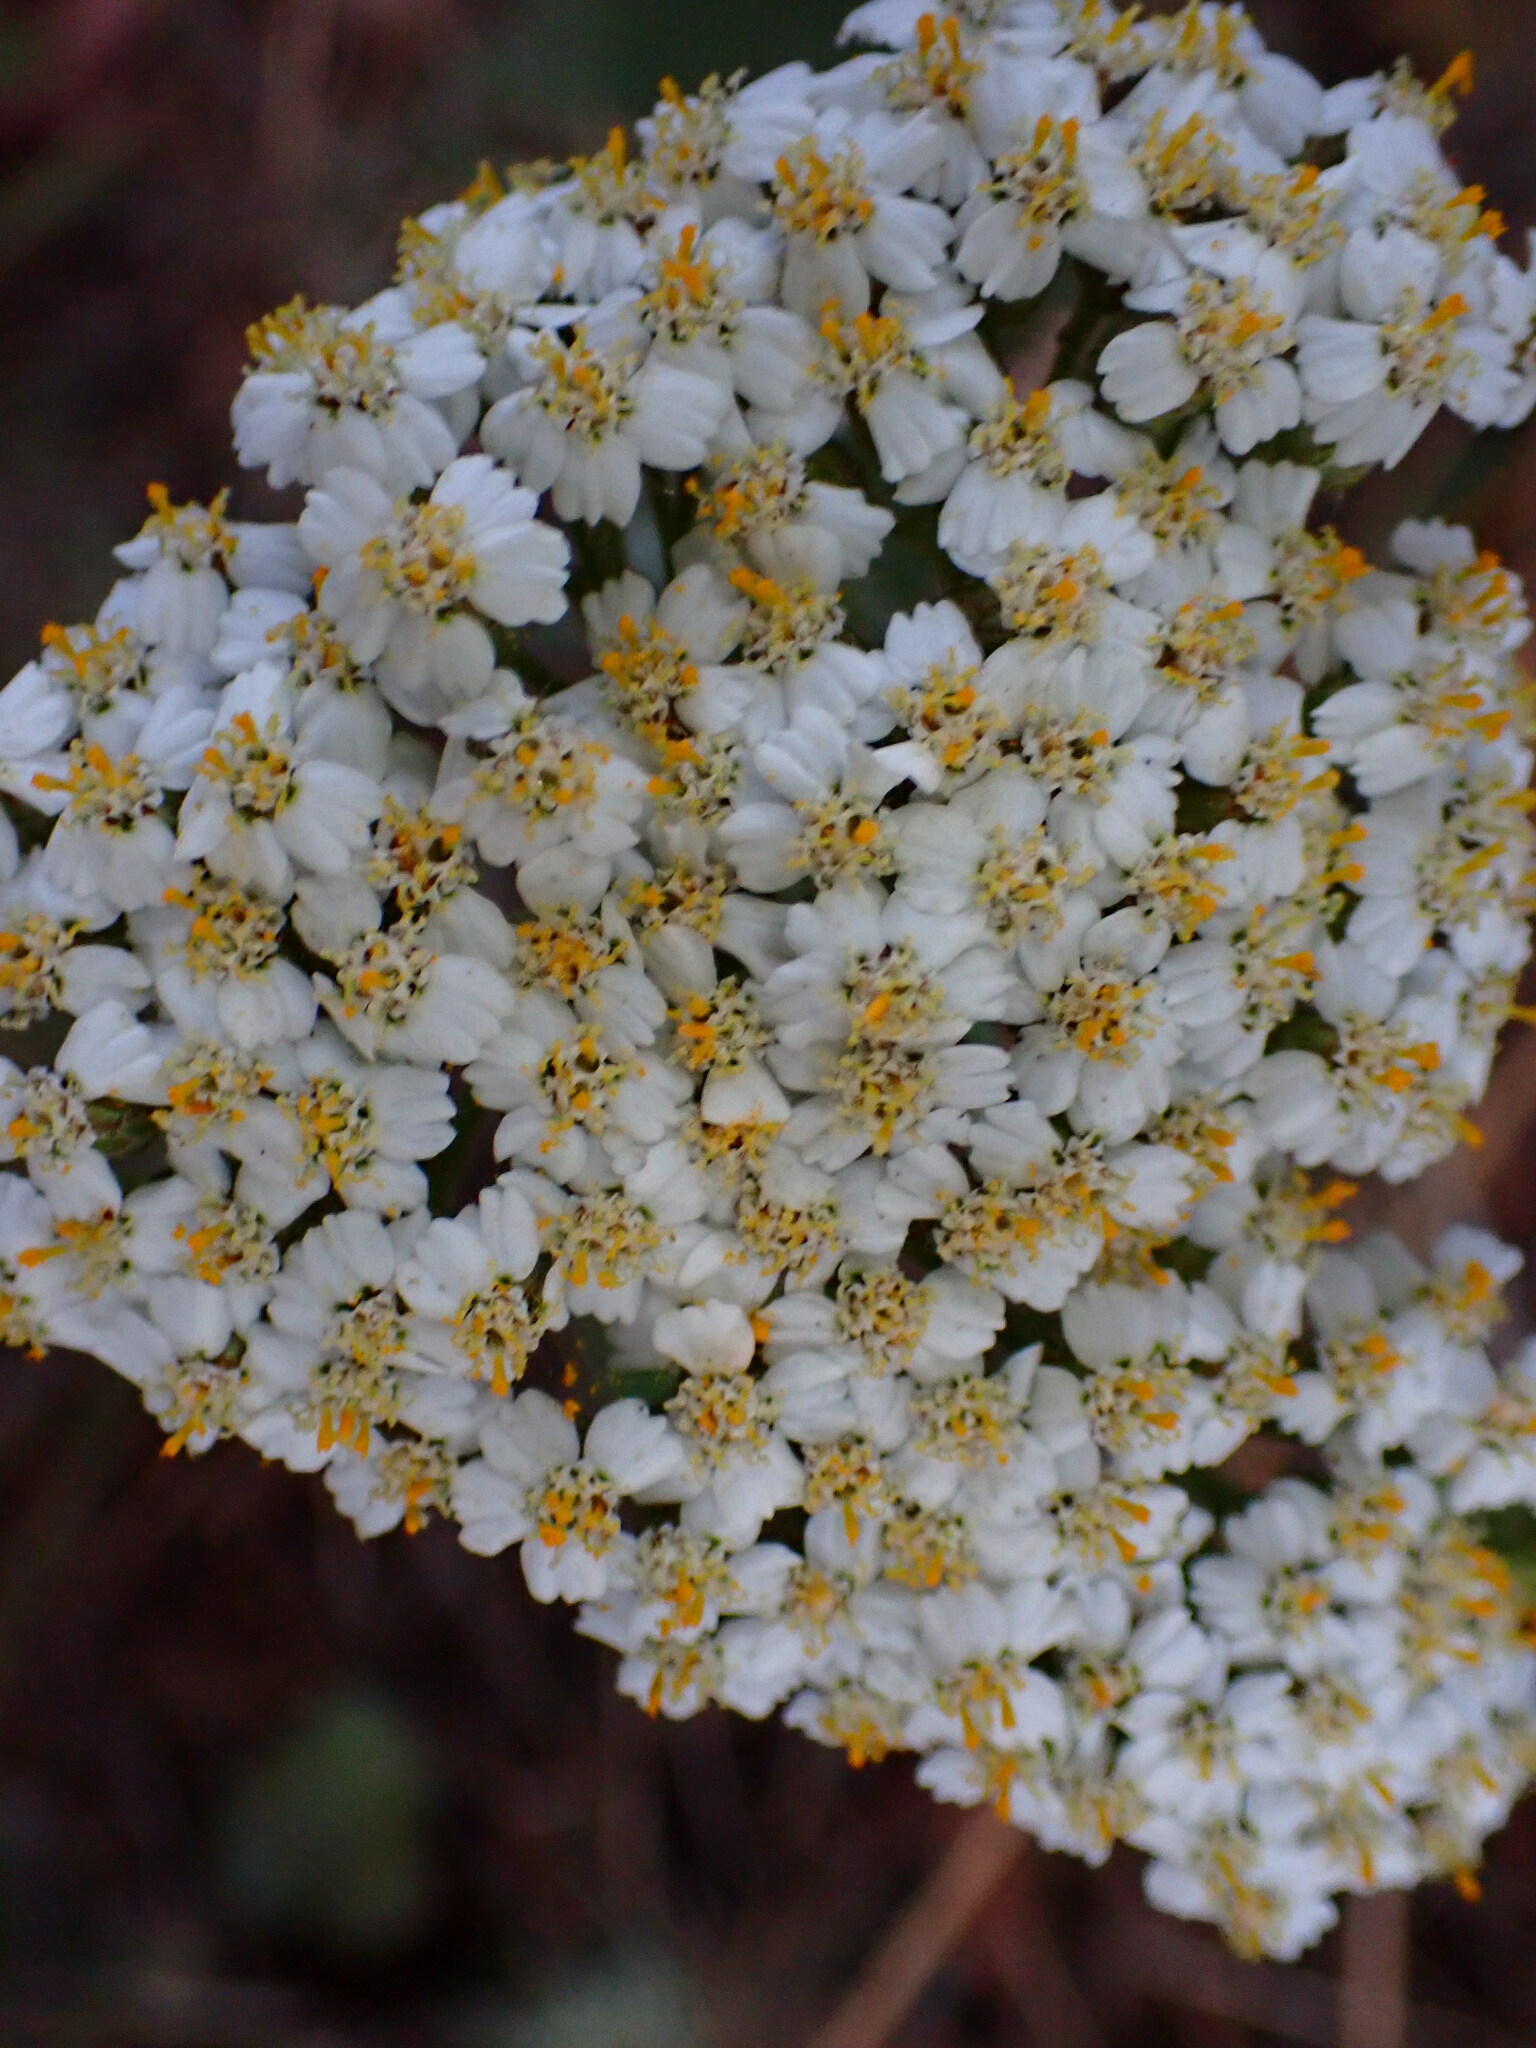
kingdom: Plantae
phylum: Tracheophyta
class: Magnoliopsida
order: Asterales
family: Asteraceae
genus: Achillea
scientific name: Achillea millefolium
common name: Yarrow
